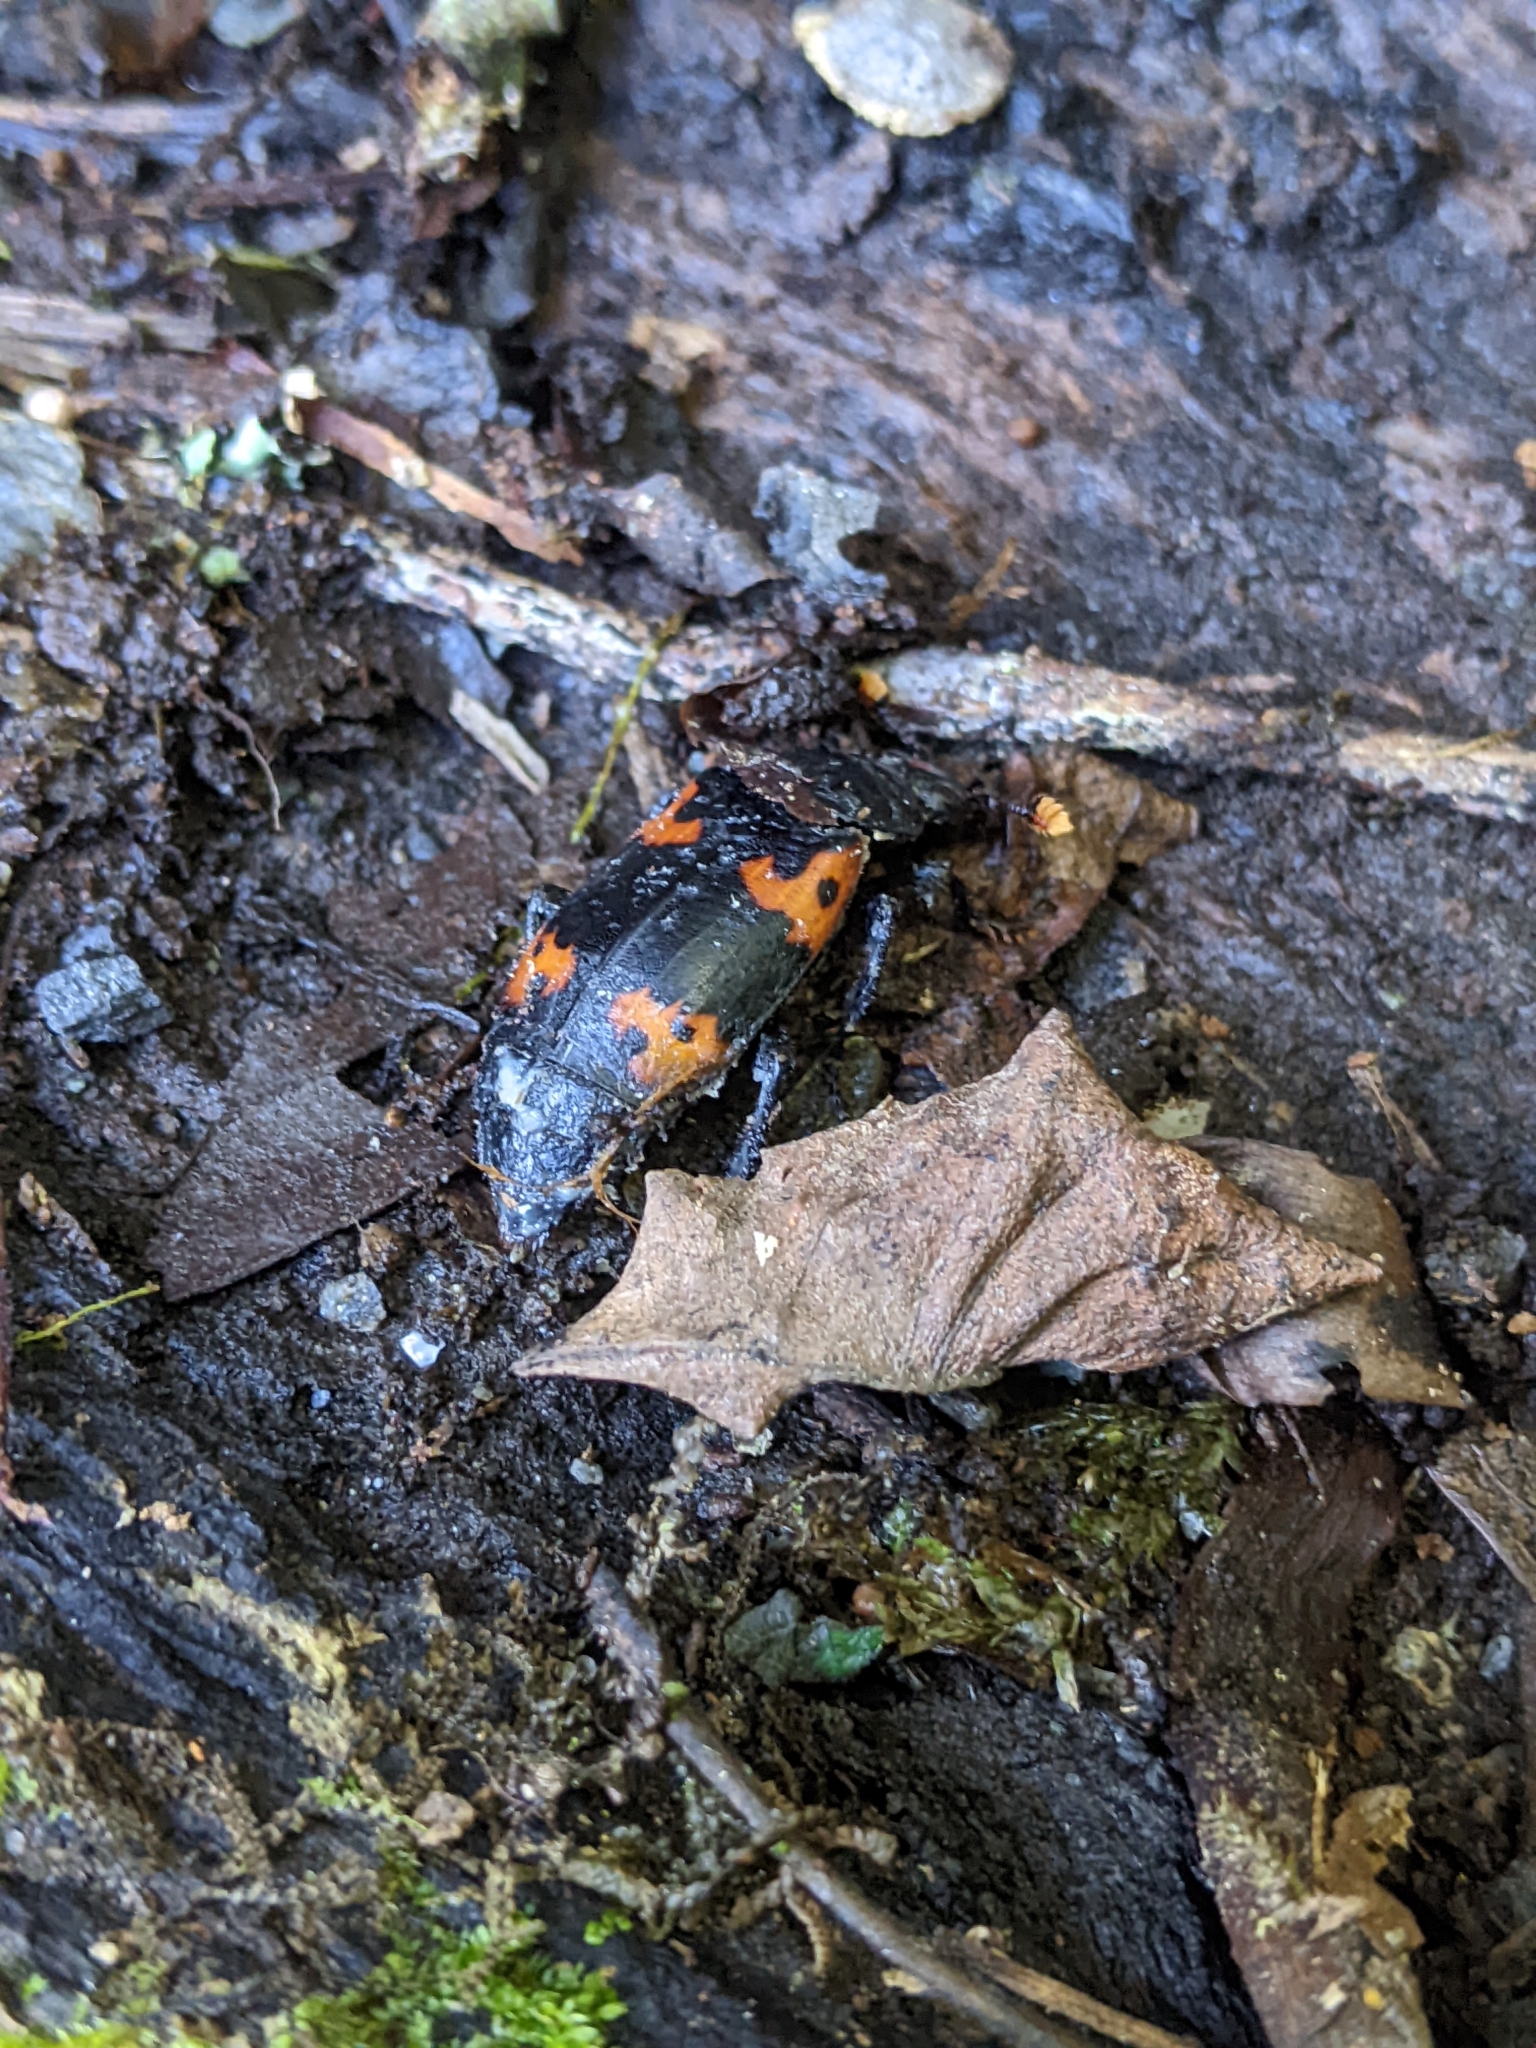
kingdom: Animalia
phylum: Arthropoda
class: Insecta
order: Coleoptera
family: Staphylinidae
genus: Nicrophorus
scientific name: Nicrophorus nepalensis
